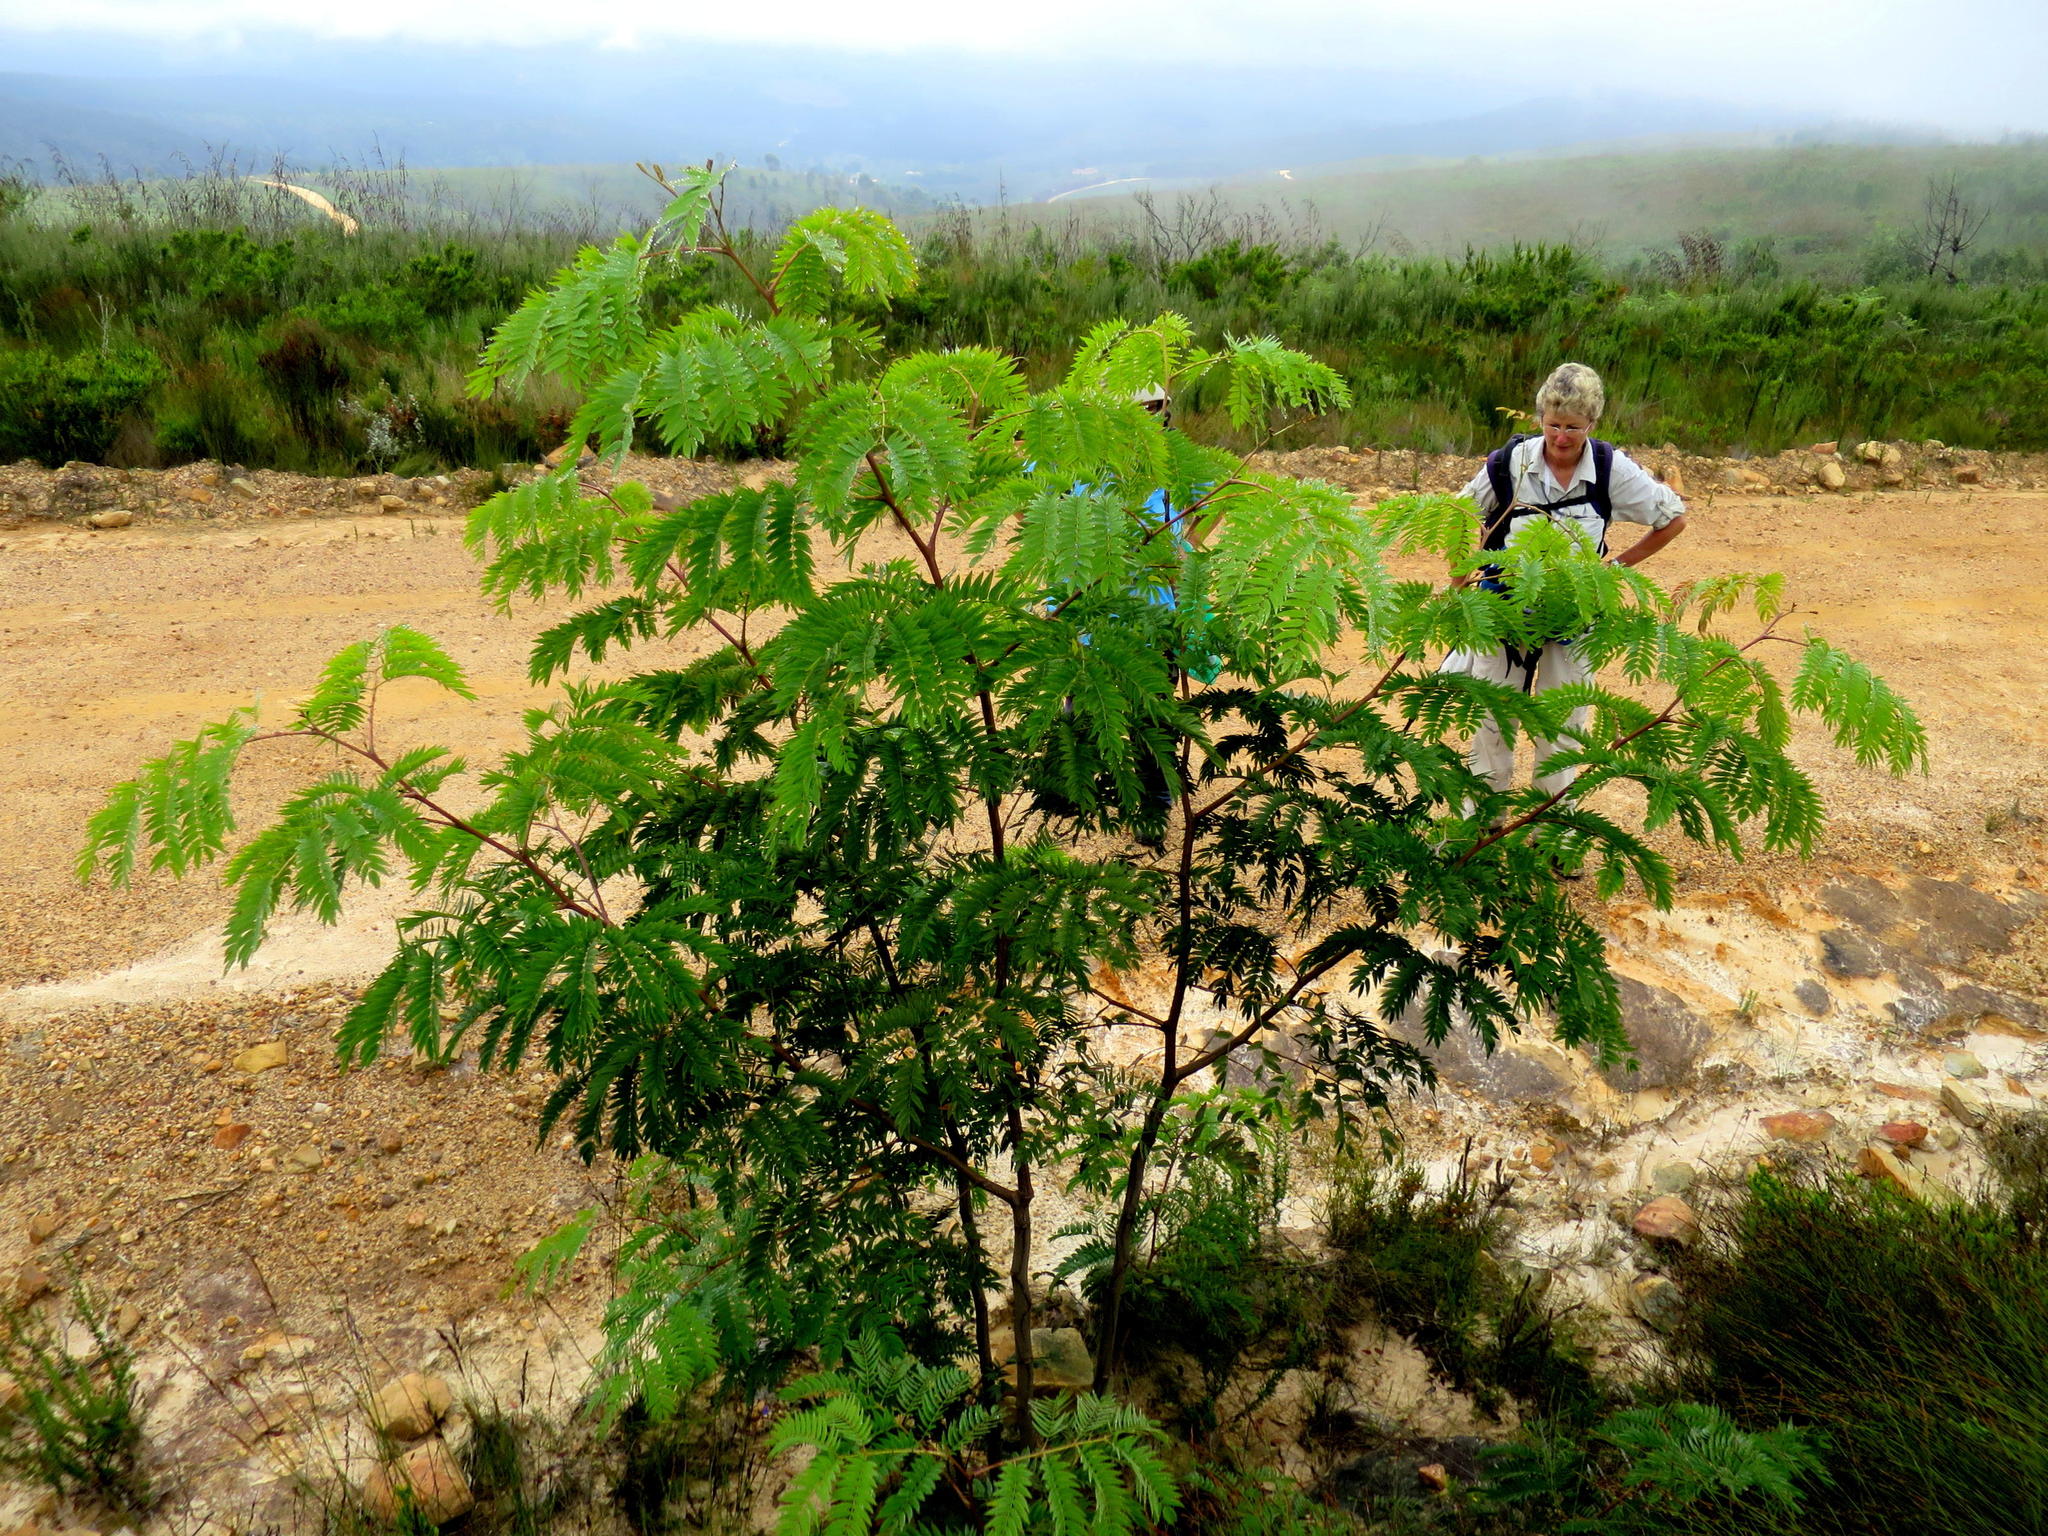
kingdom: Plantae
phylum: Tracheophyta
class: Magnoliopsida
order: Fabales
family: Fabaceae
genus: Acacia
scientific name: Acacia elata
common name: Cedar wattle
